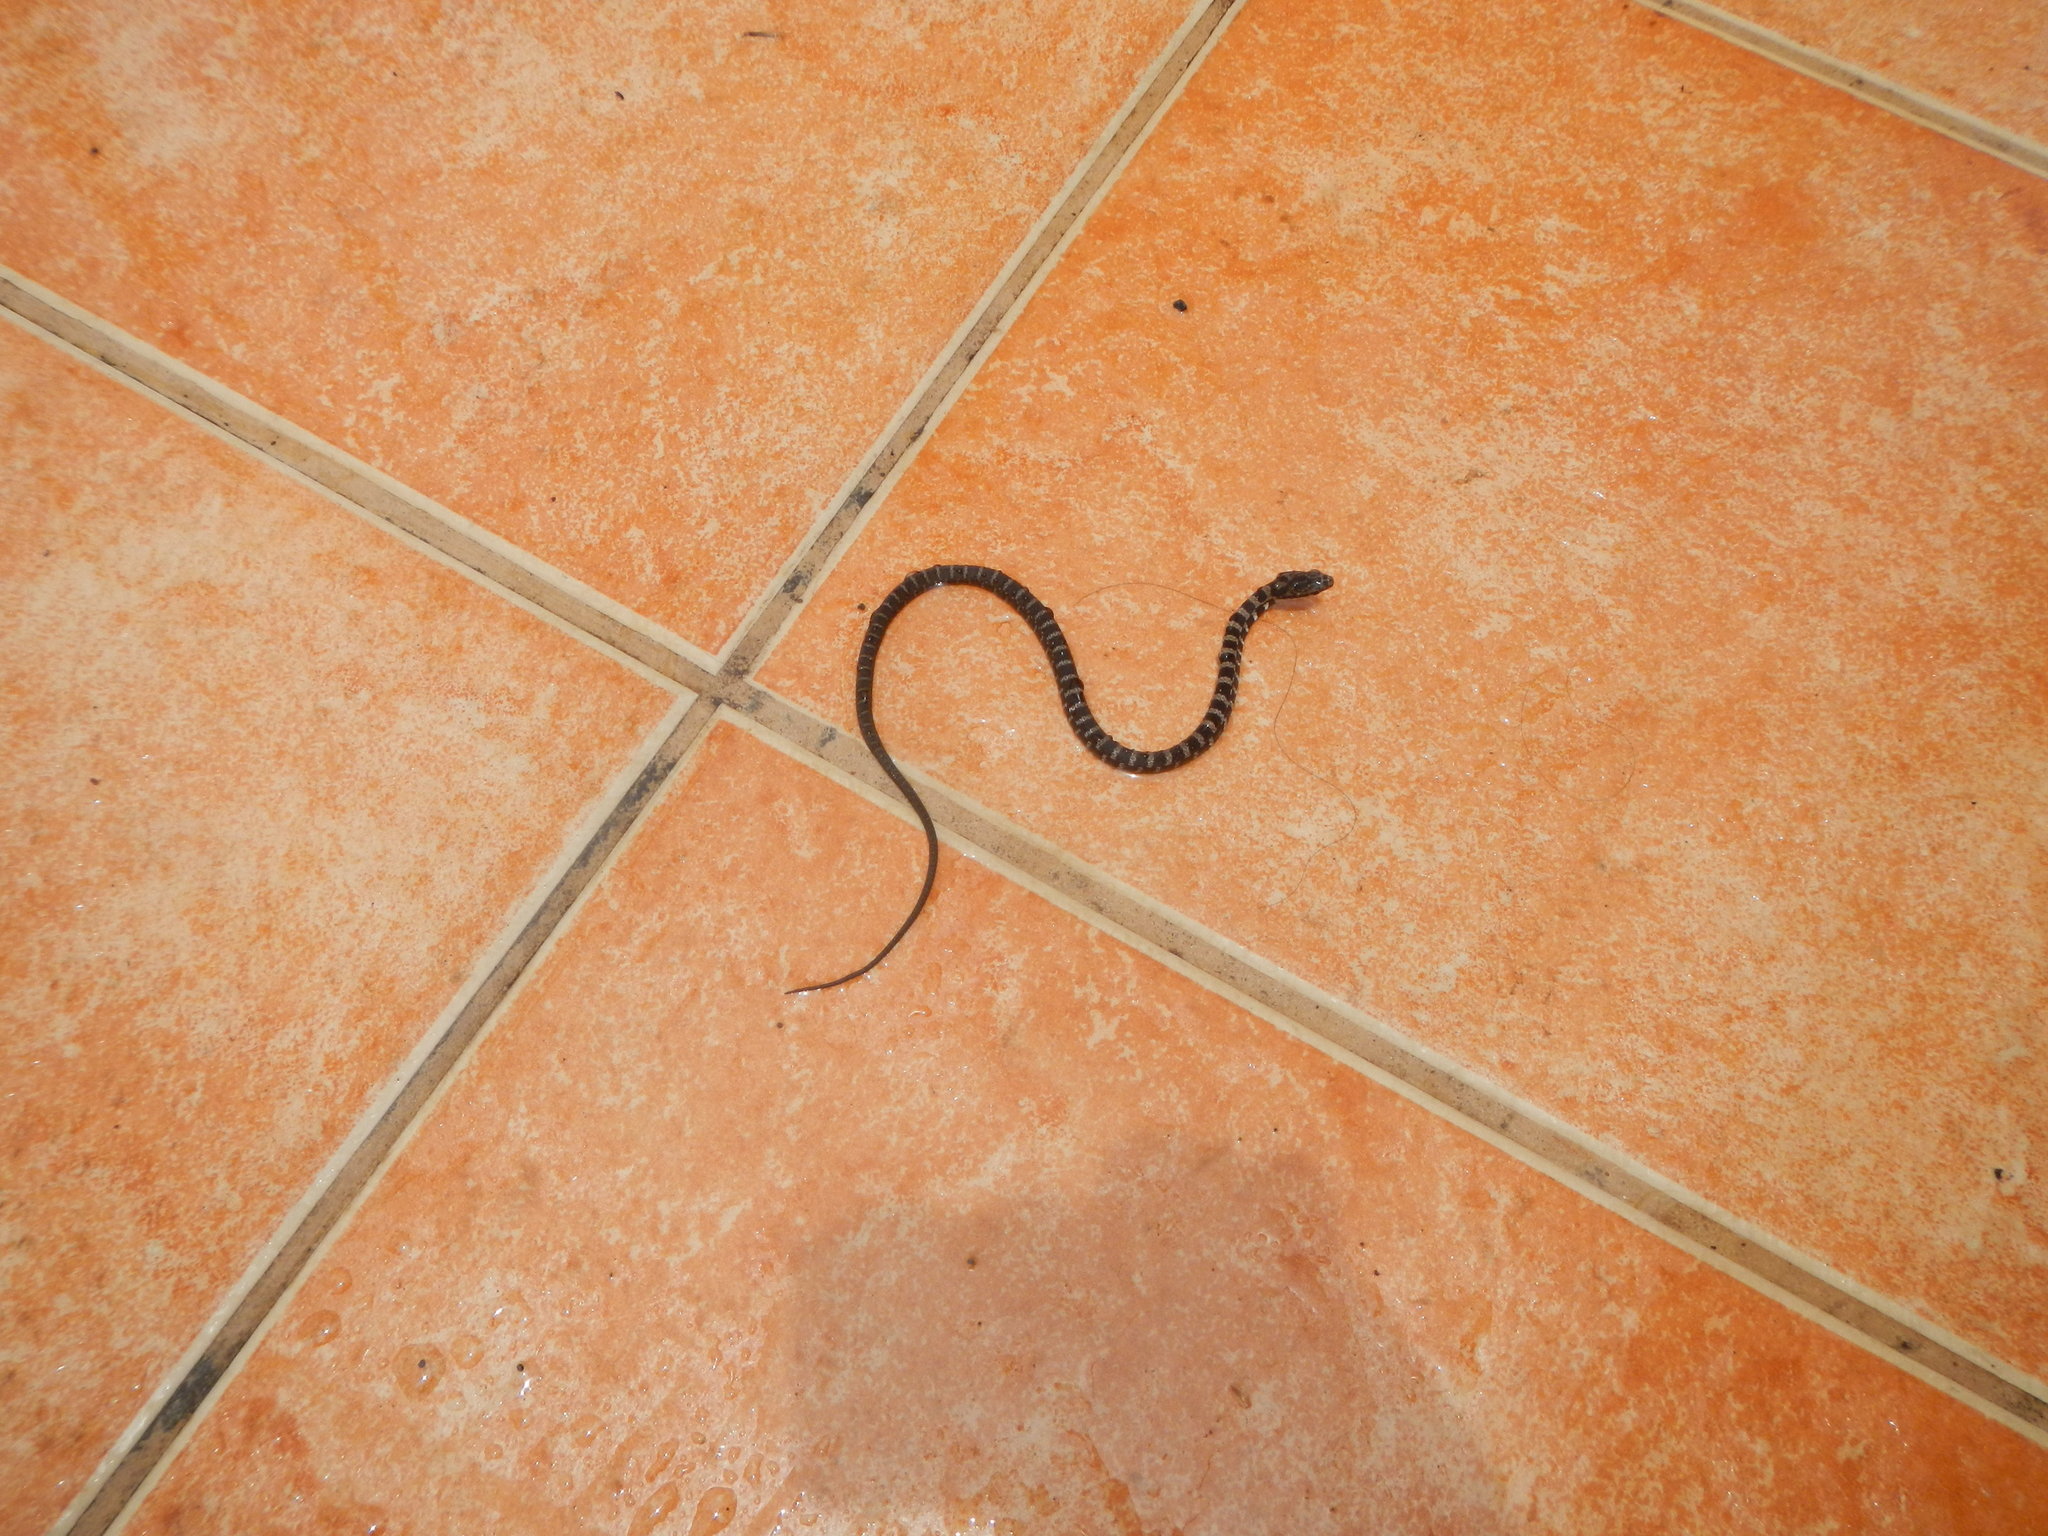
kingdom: Animalia
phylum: Chordata
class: Squamata
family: Colubridae
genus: Mastigodryas
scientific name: Mastigodryas alternatus
